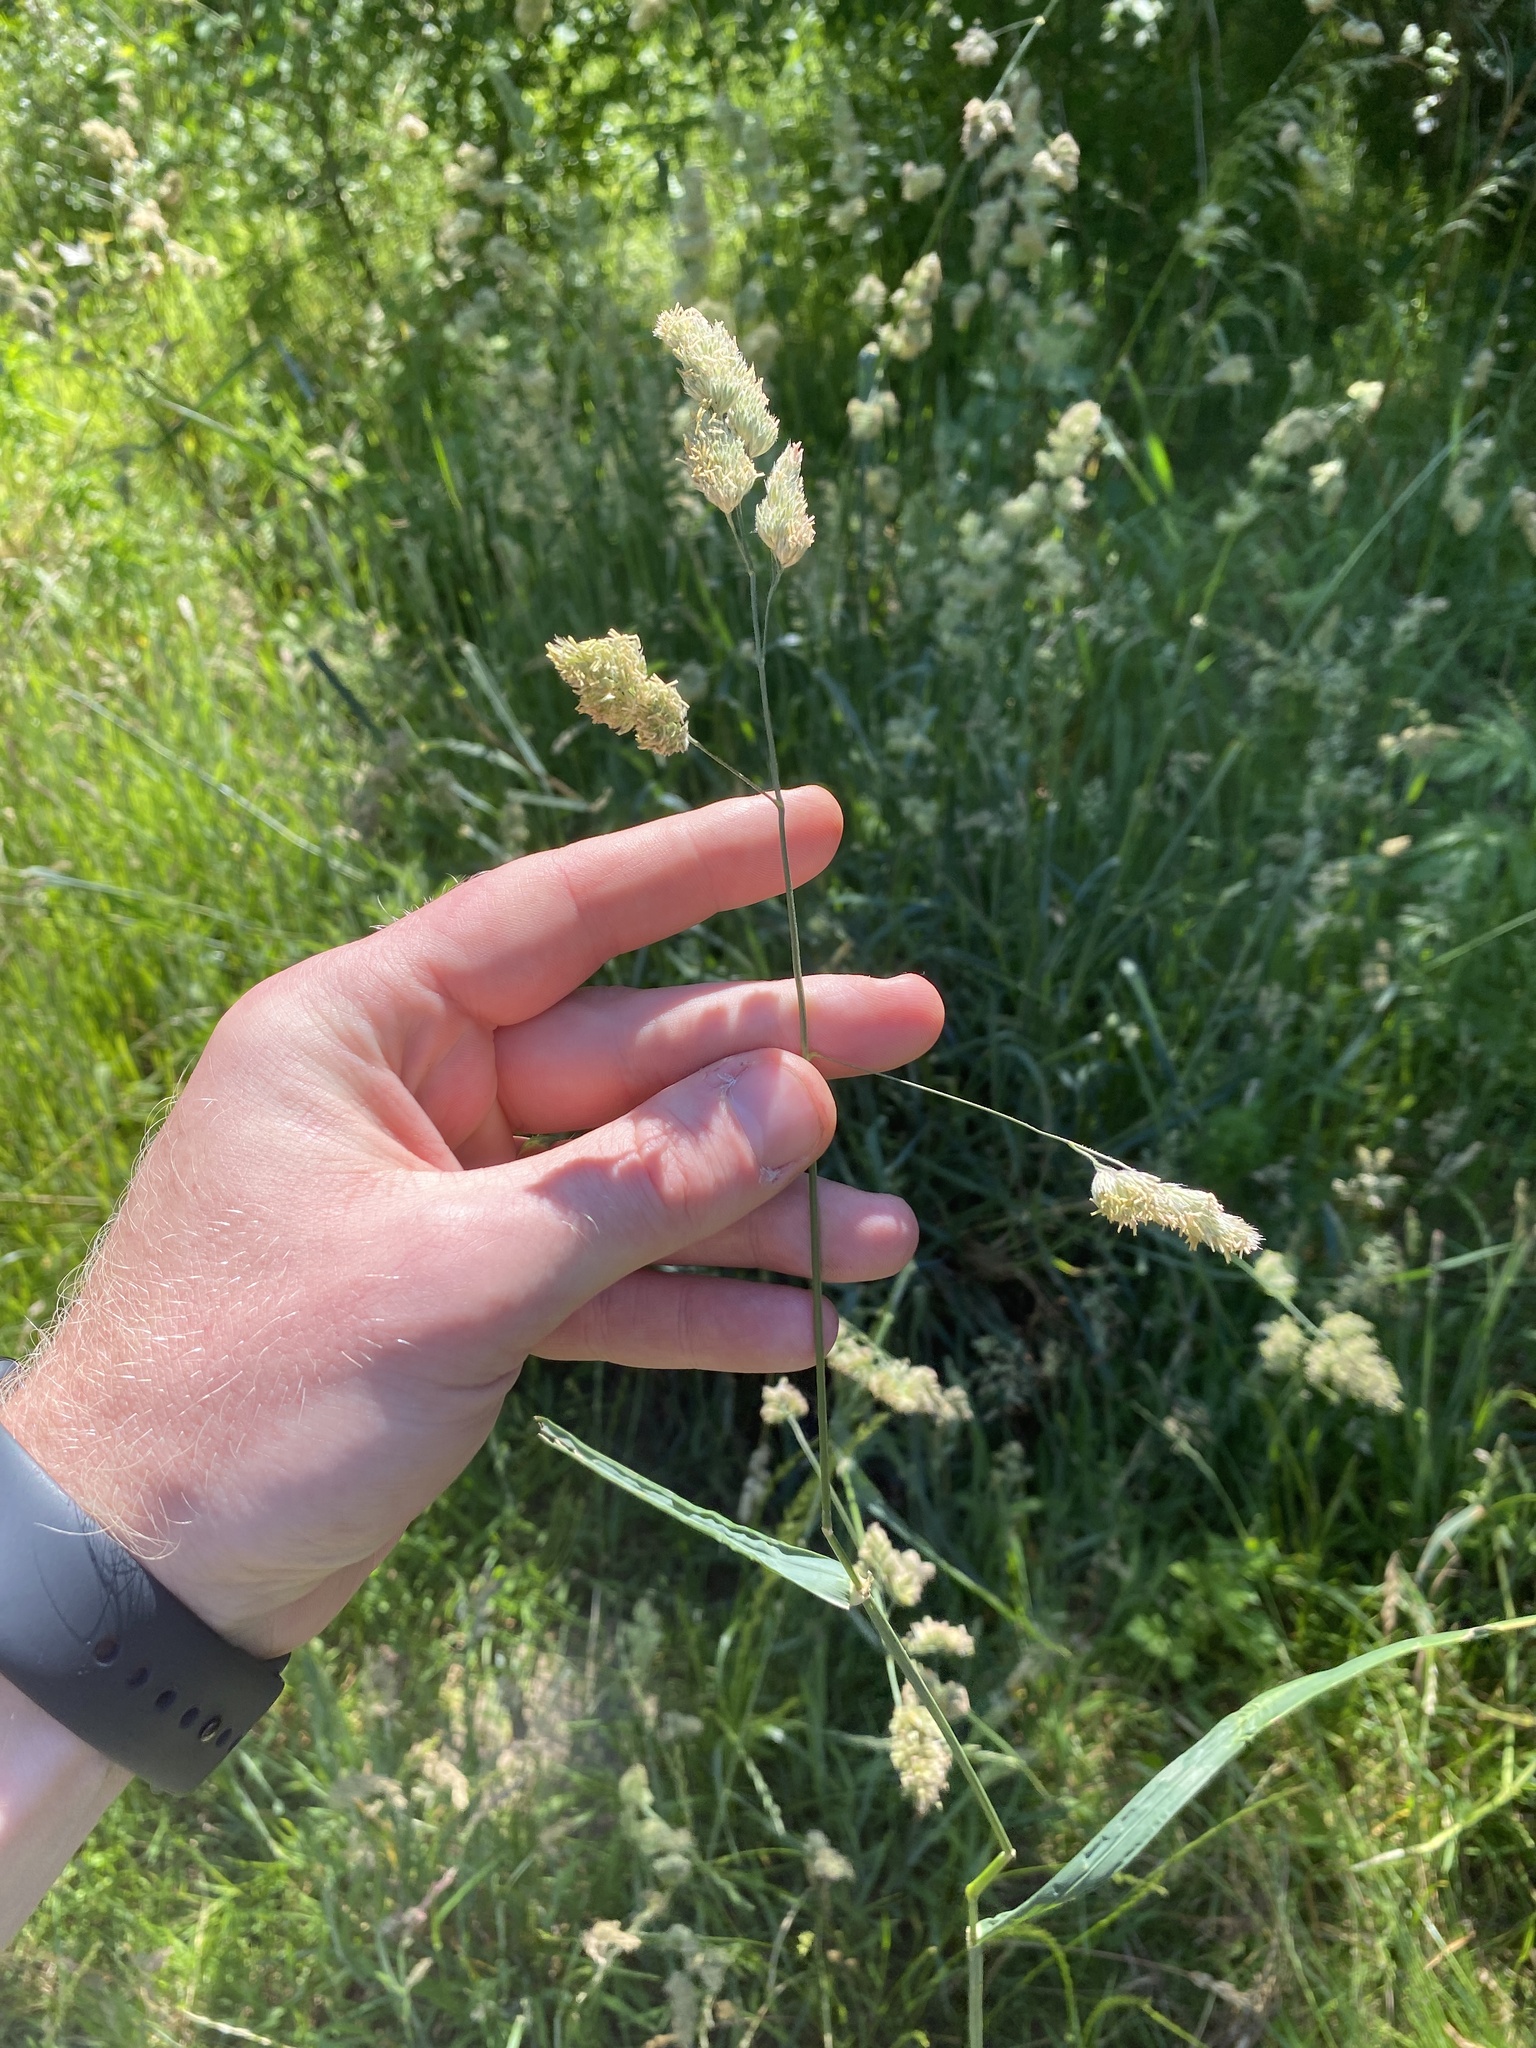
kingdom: Plantae
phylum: Tracheophyta
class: Liliopsida
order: Poales
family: Poaceae
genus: Dactylis
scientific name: Dactylis glomerata
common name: Orchardgrass
